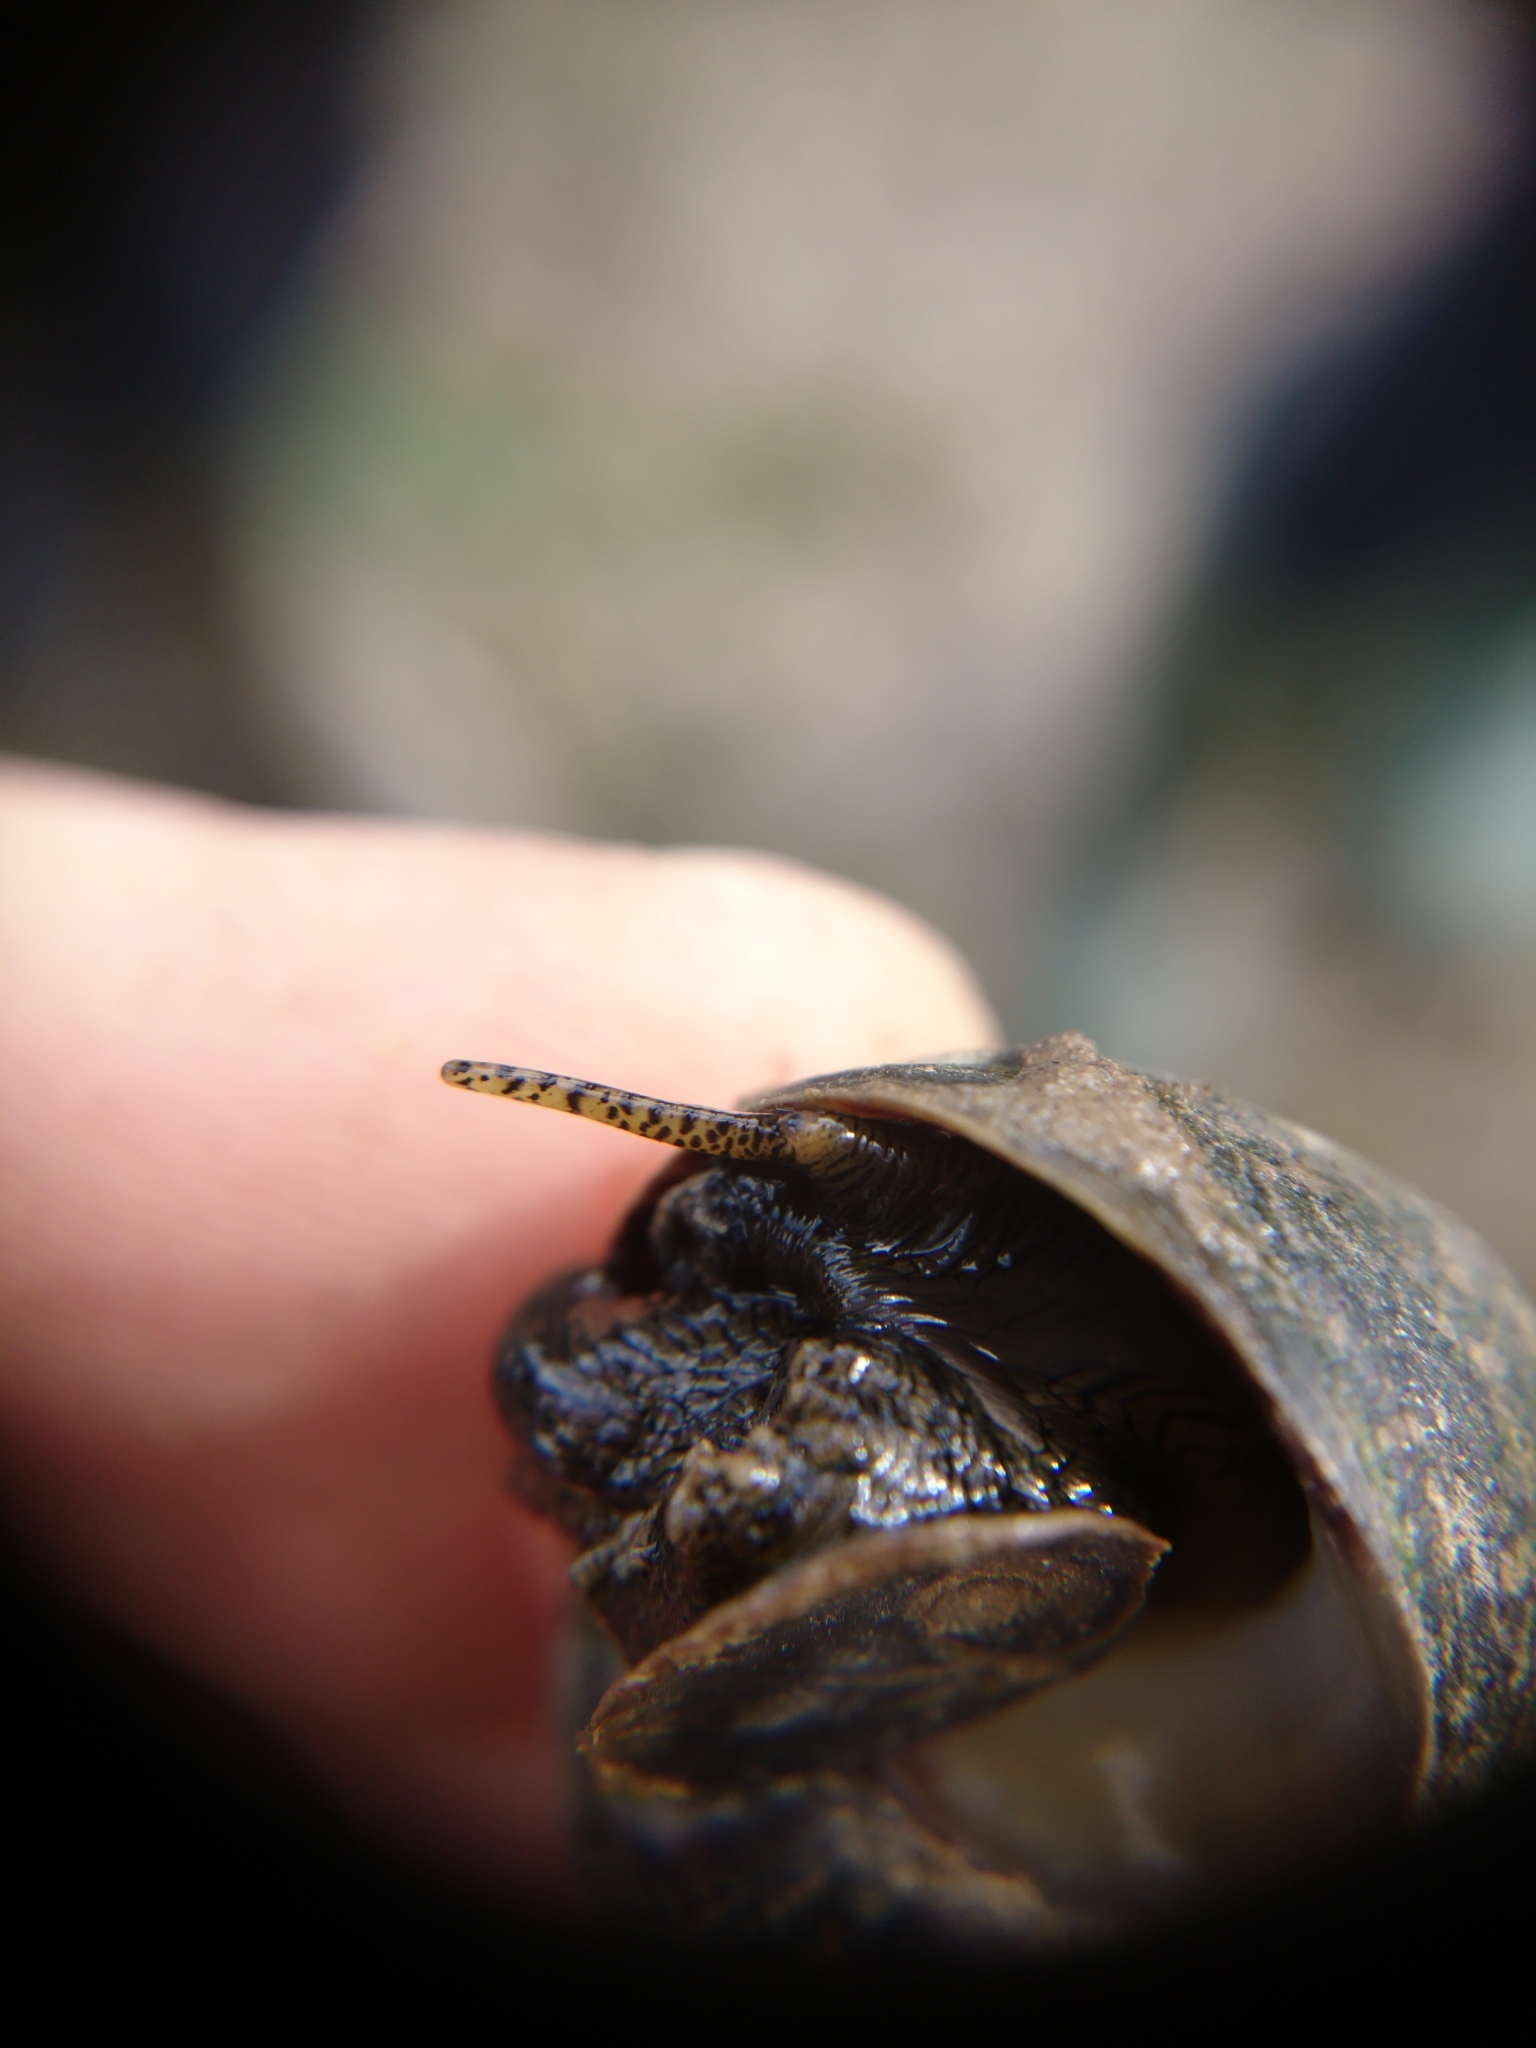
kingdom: Animalia
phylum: Mollusca
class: Gastropoda
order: Littorinimorpha
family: Littorinidae
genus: Littorina
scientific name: Littorina littorea
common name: Common periwinkle
